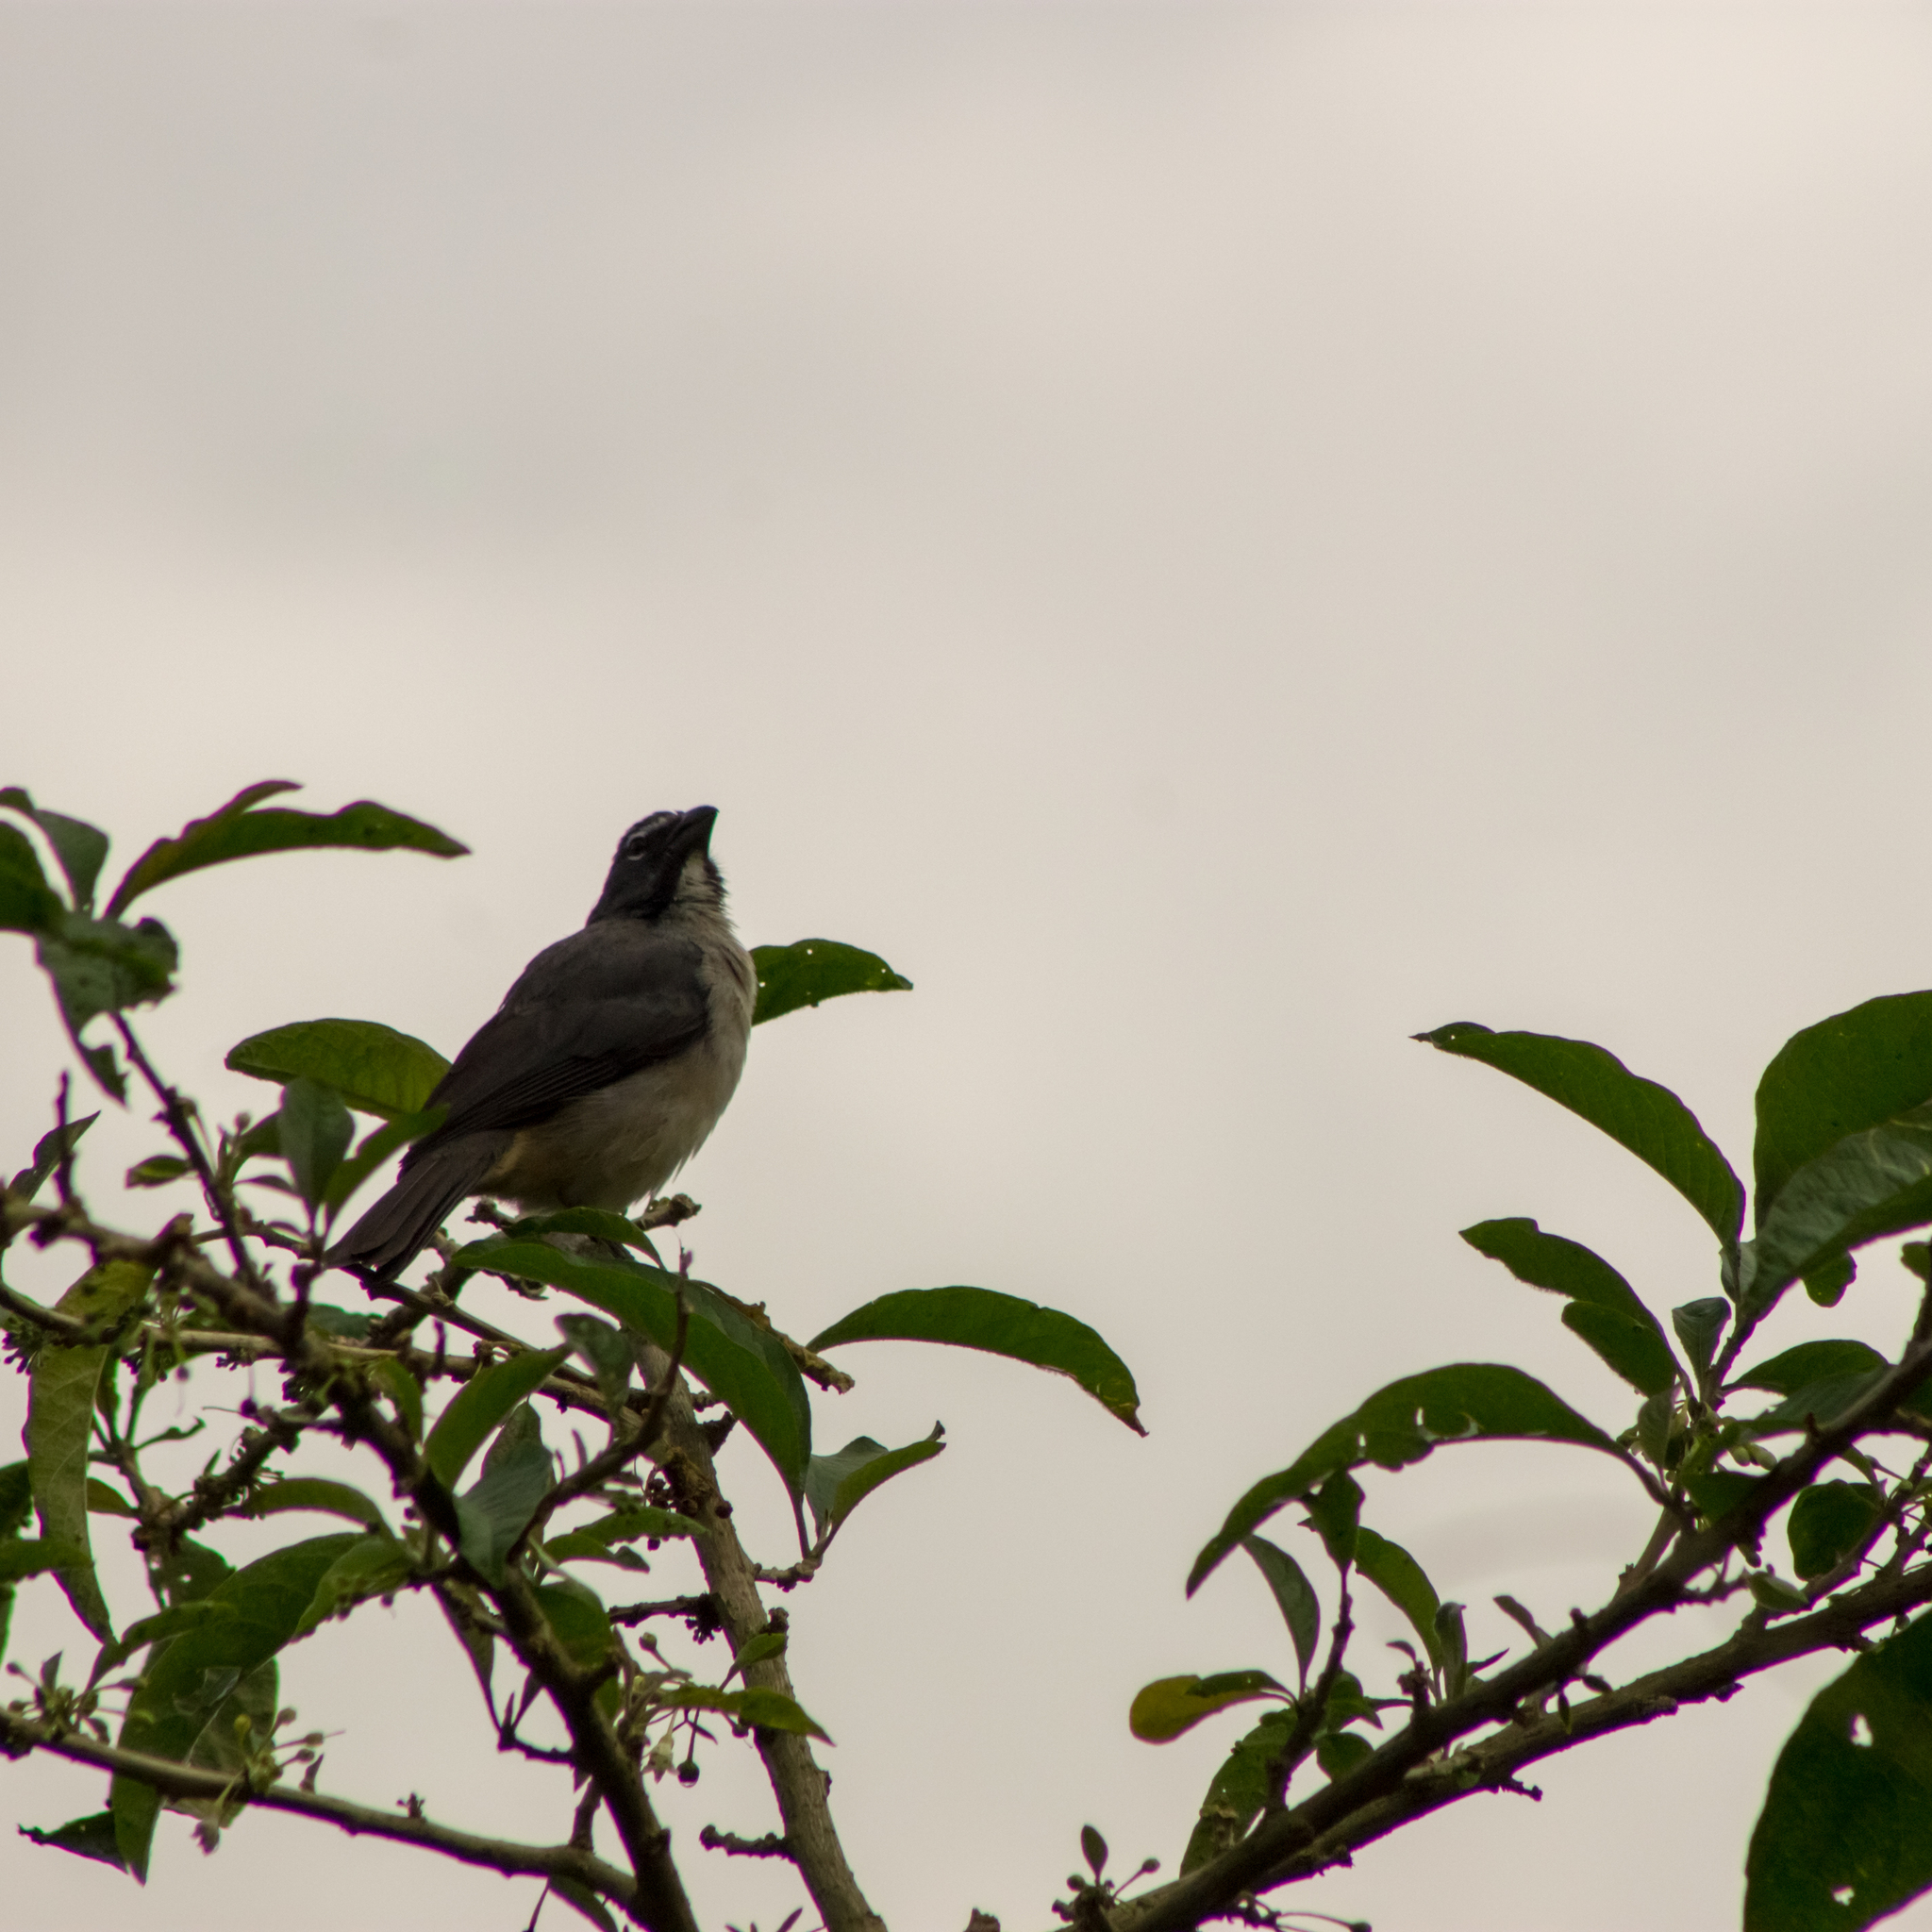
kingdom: Animalia
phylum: Chordata
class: Aves
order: Passeriformes
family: Thraupidae
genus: Saltator
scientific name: Saltator olivascens
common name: Caribbean grey saltator
